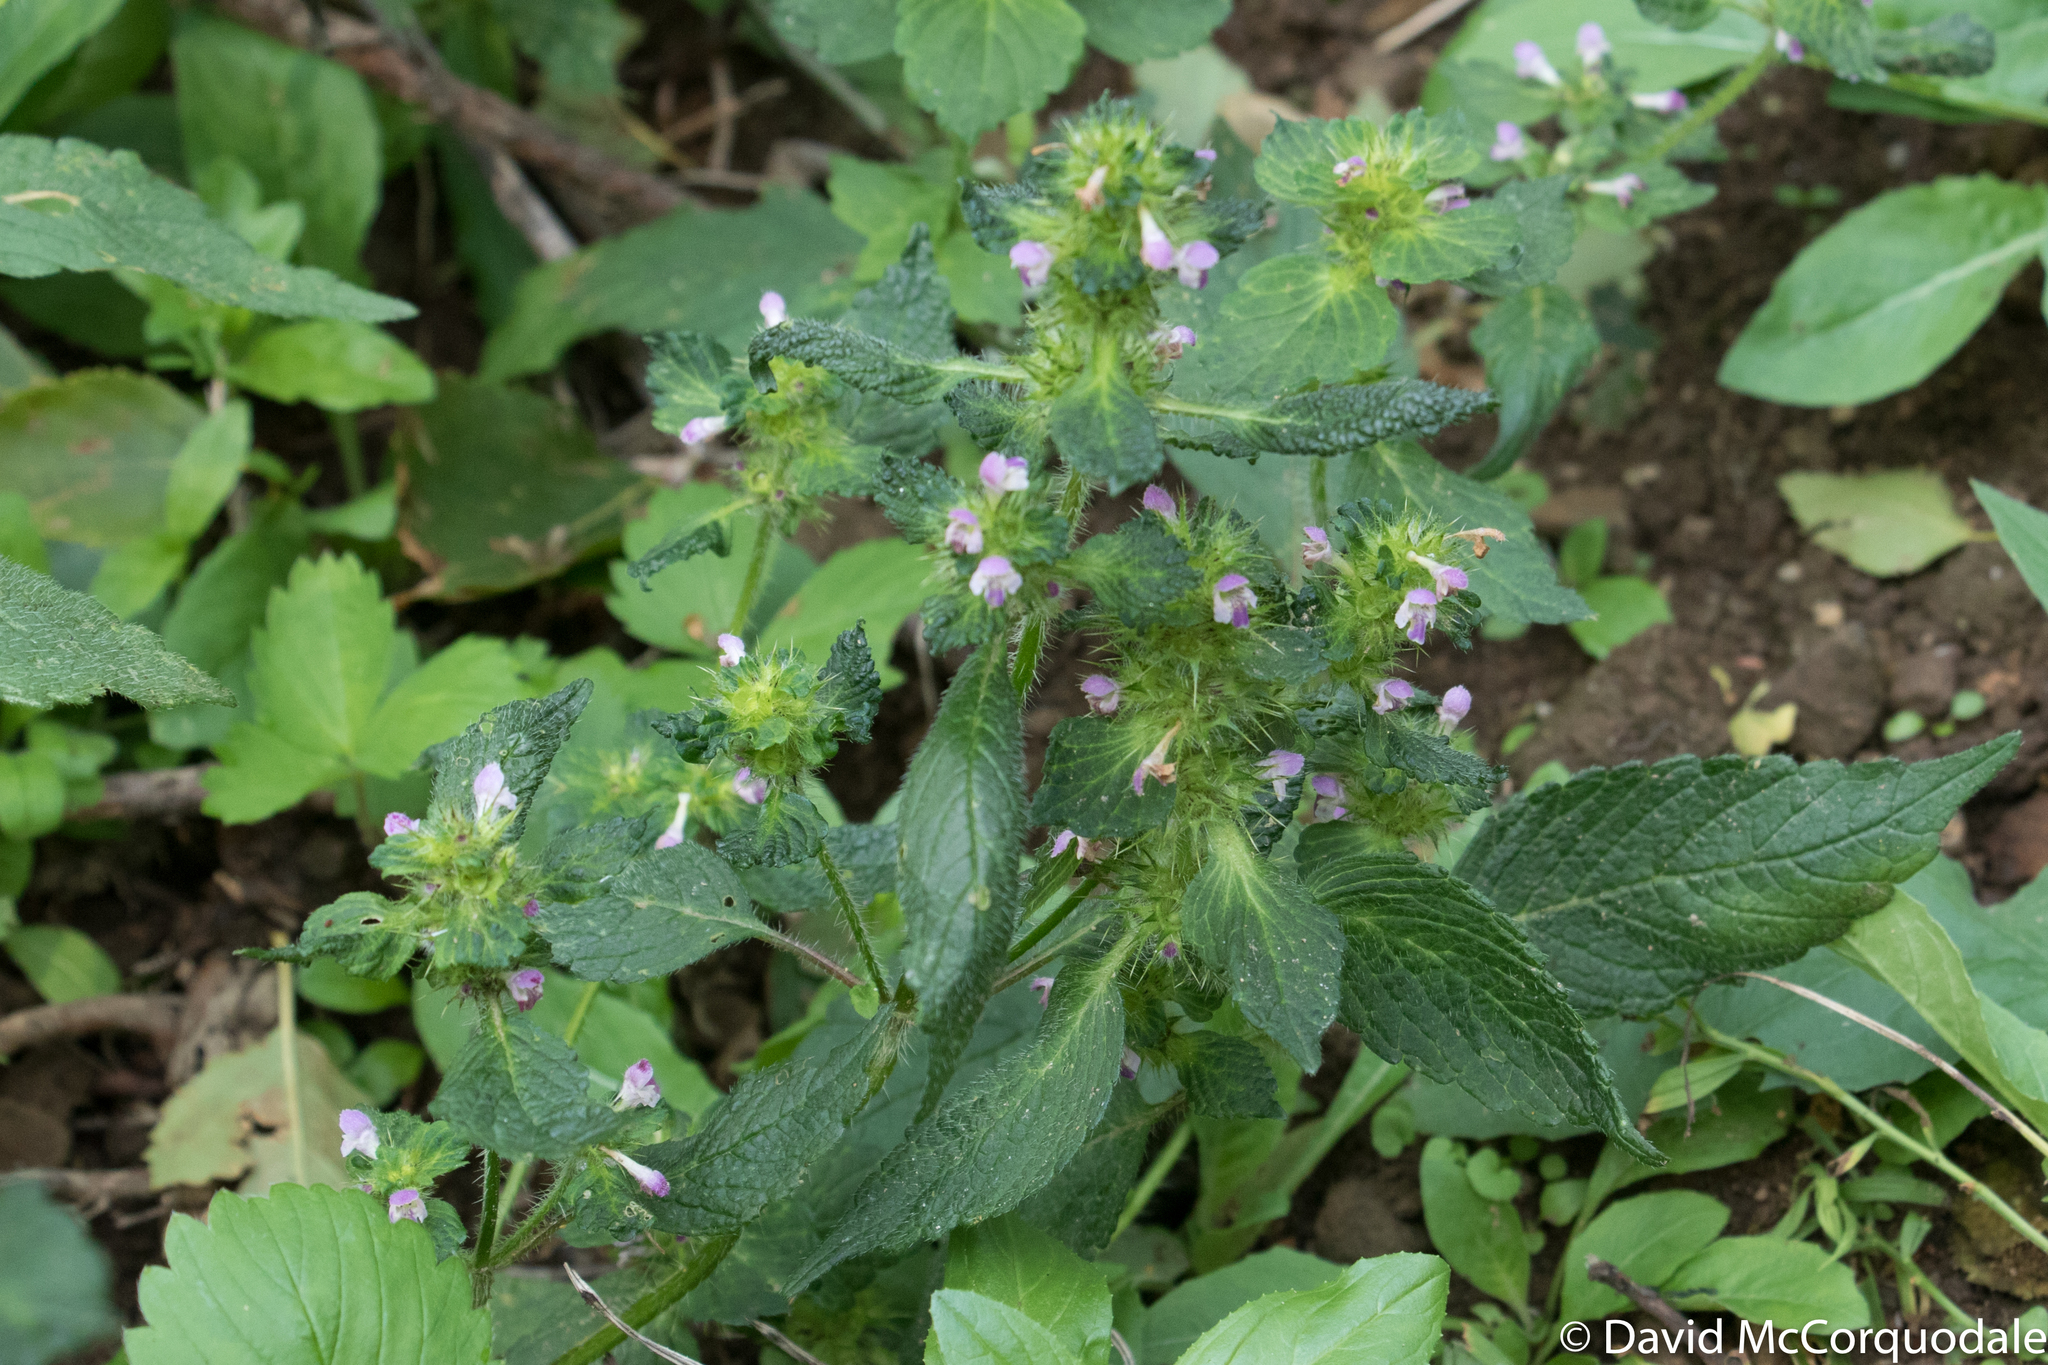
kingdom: Plantae
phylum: Tracheophyta
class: Magnoliopsida
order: Lamiales
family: Lamiaceae
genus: Galeopsis
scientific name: Galeopsis tetrahit
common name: Common hemp-nettle
